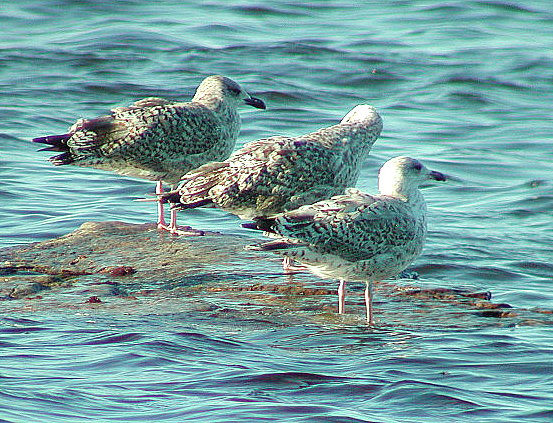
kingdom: Animalia
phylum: Chordata
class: Aves
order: Charadriiformes
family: Laridae
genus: Larus
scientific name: Larus argentatus
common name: Herring gull
